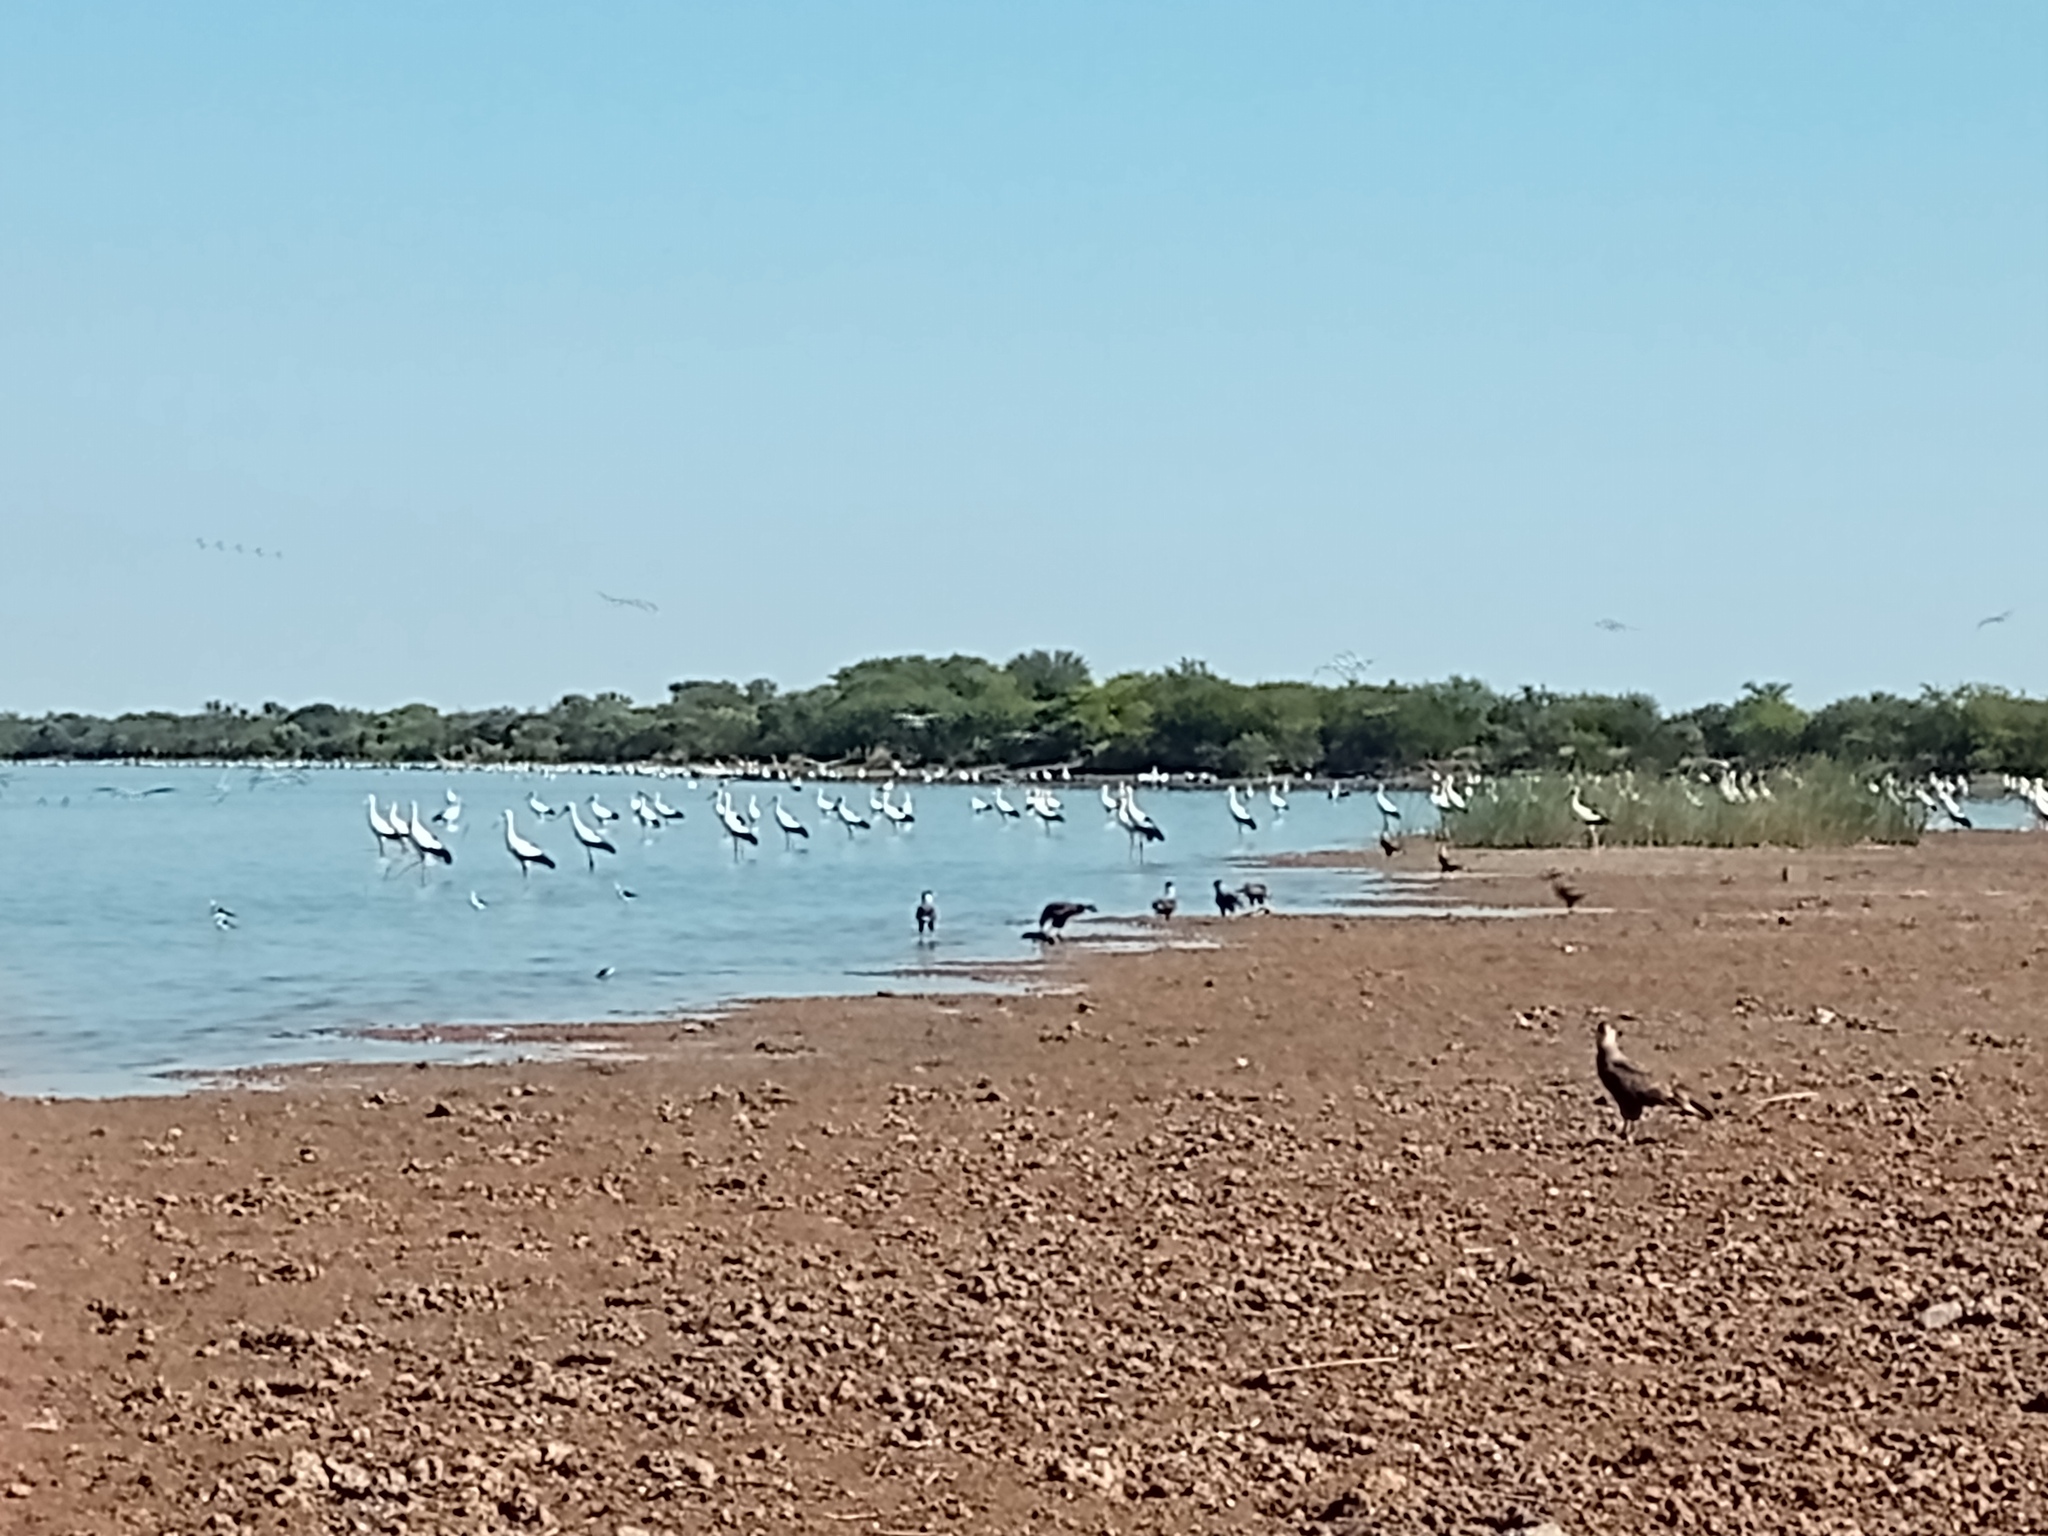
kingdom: Animalia
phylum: Chordata
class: Aves
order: Falconiformes
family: Falconidae
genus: Caracara
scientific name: Caracara plancus
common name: Southern caracara
